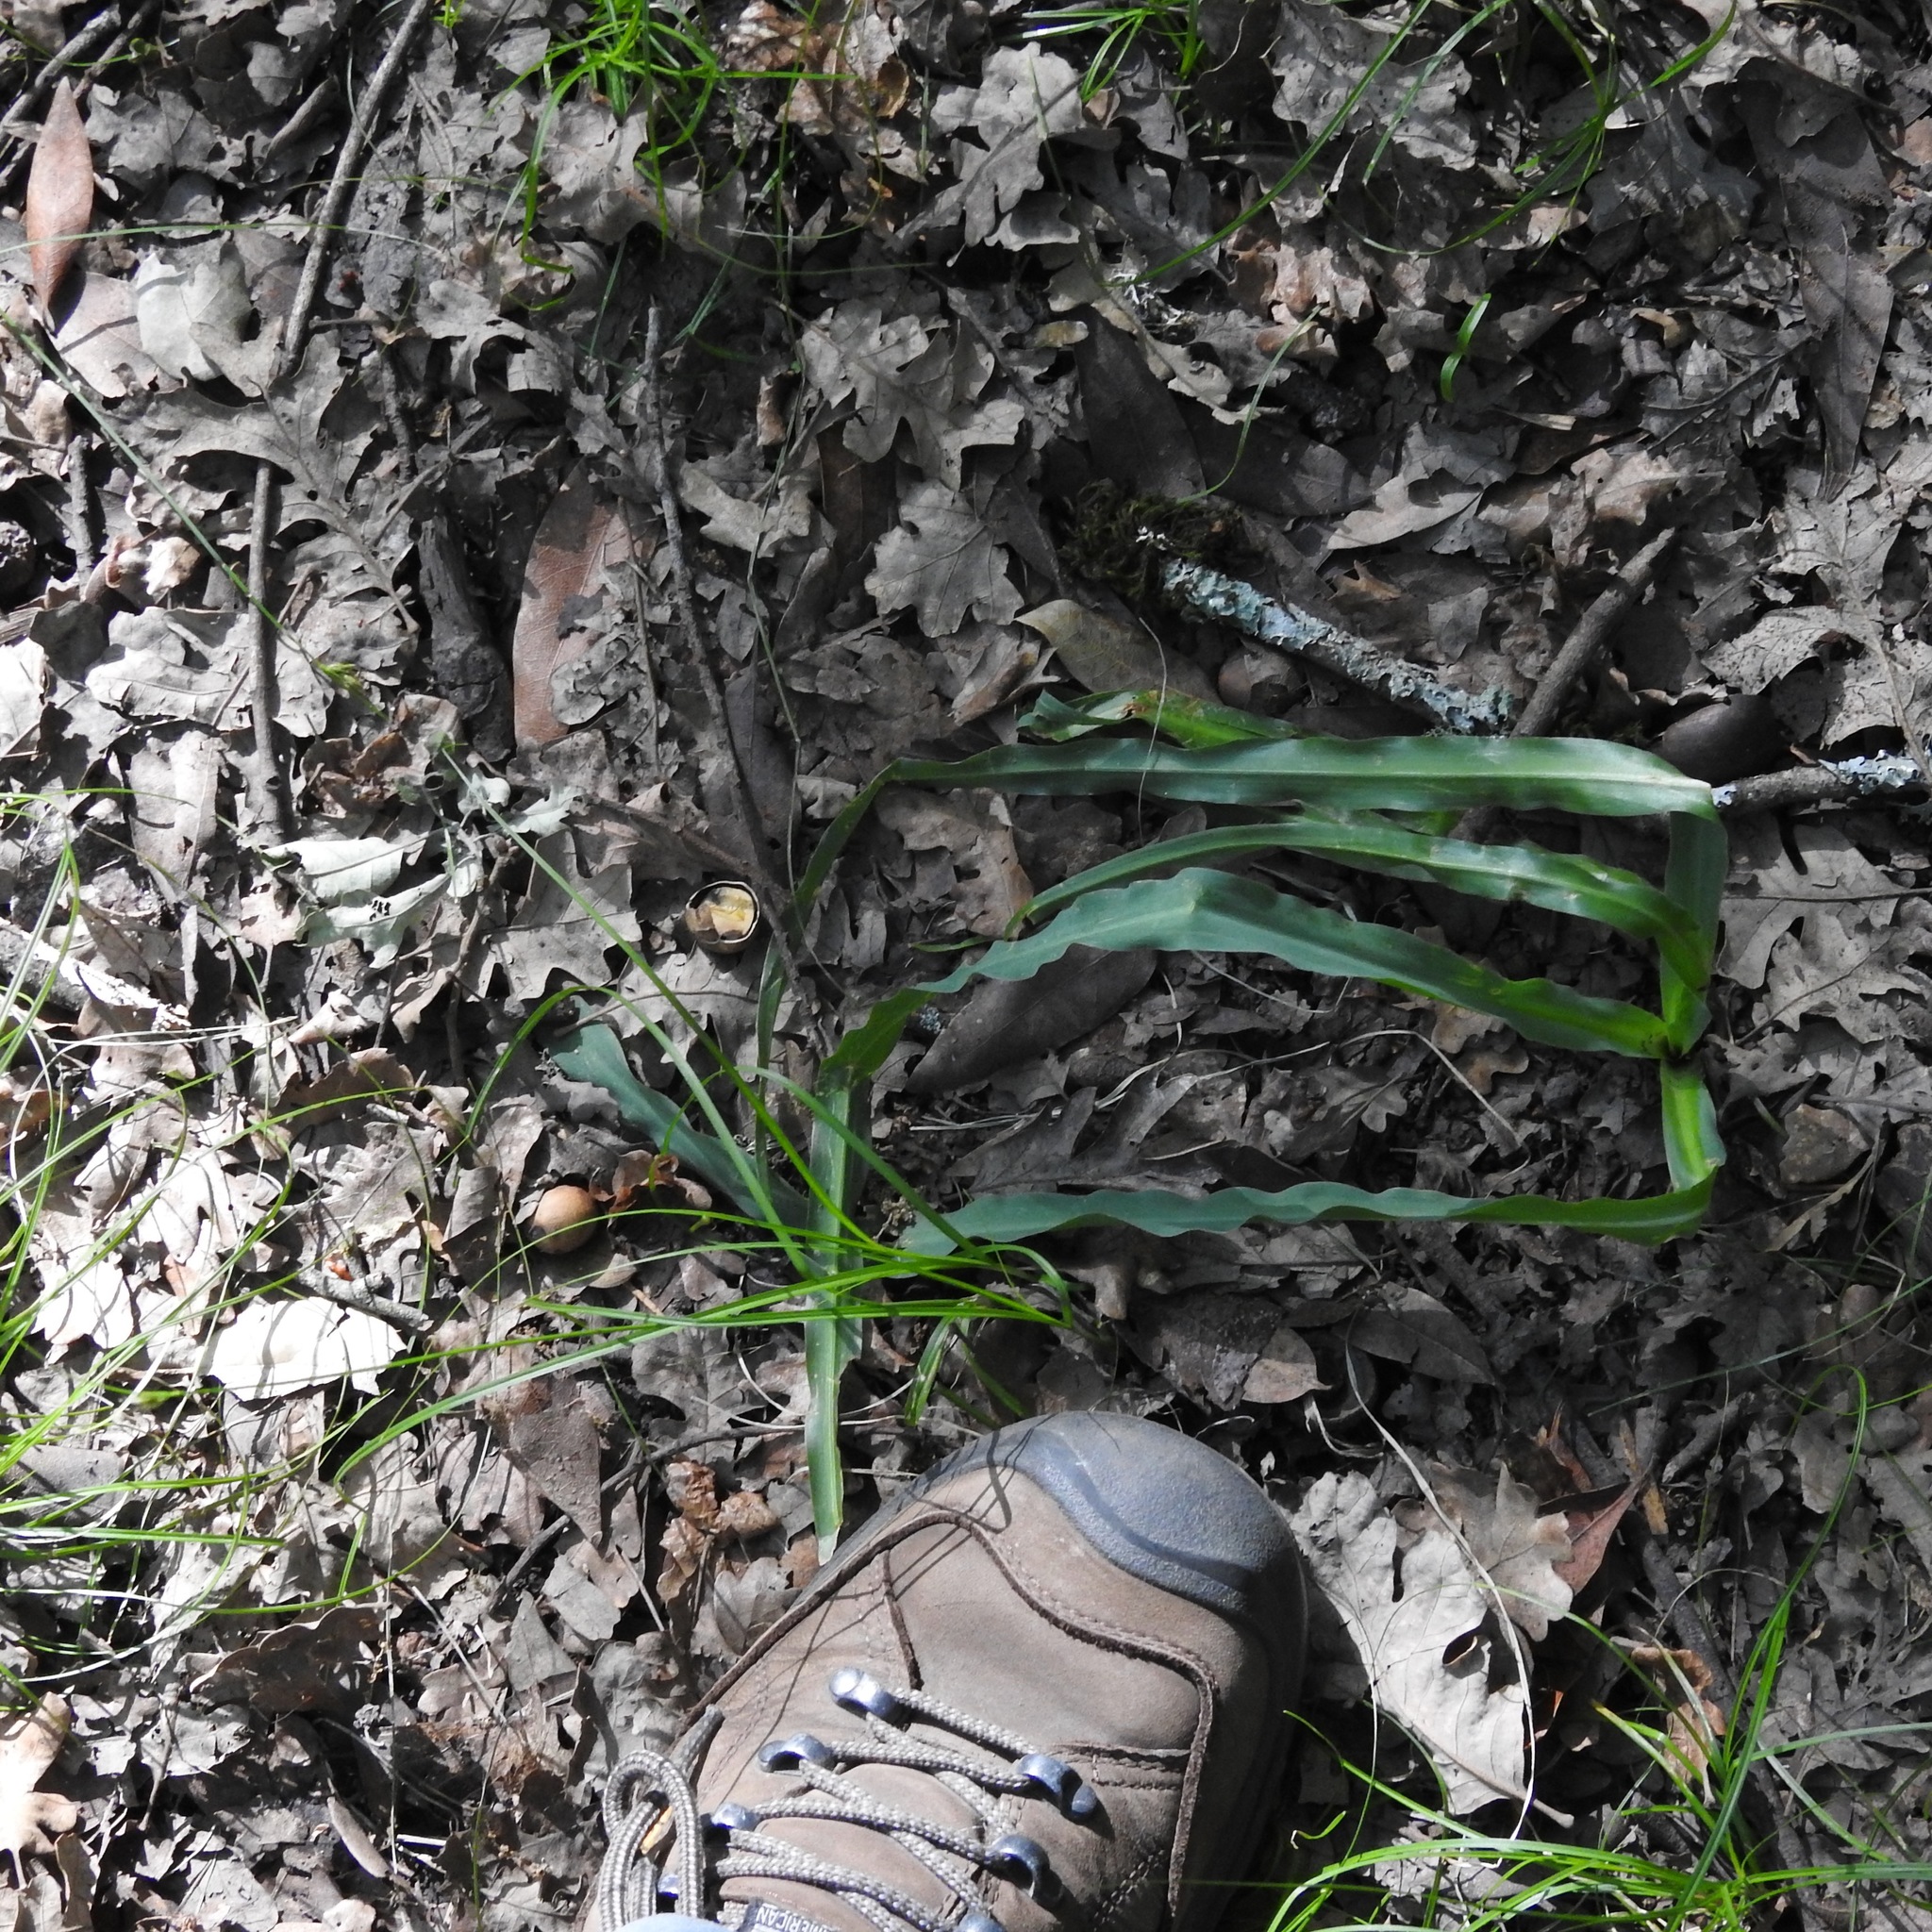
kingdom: Plantae
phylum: Tracheophyta
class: Liliopsida
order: Asparagales
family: Asparagaceae
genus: Chlorogalum
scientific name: Chlorogalum pomeridianum
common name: Amole
